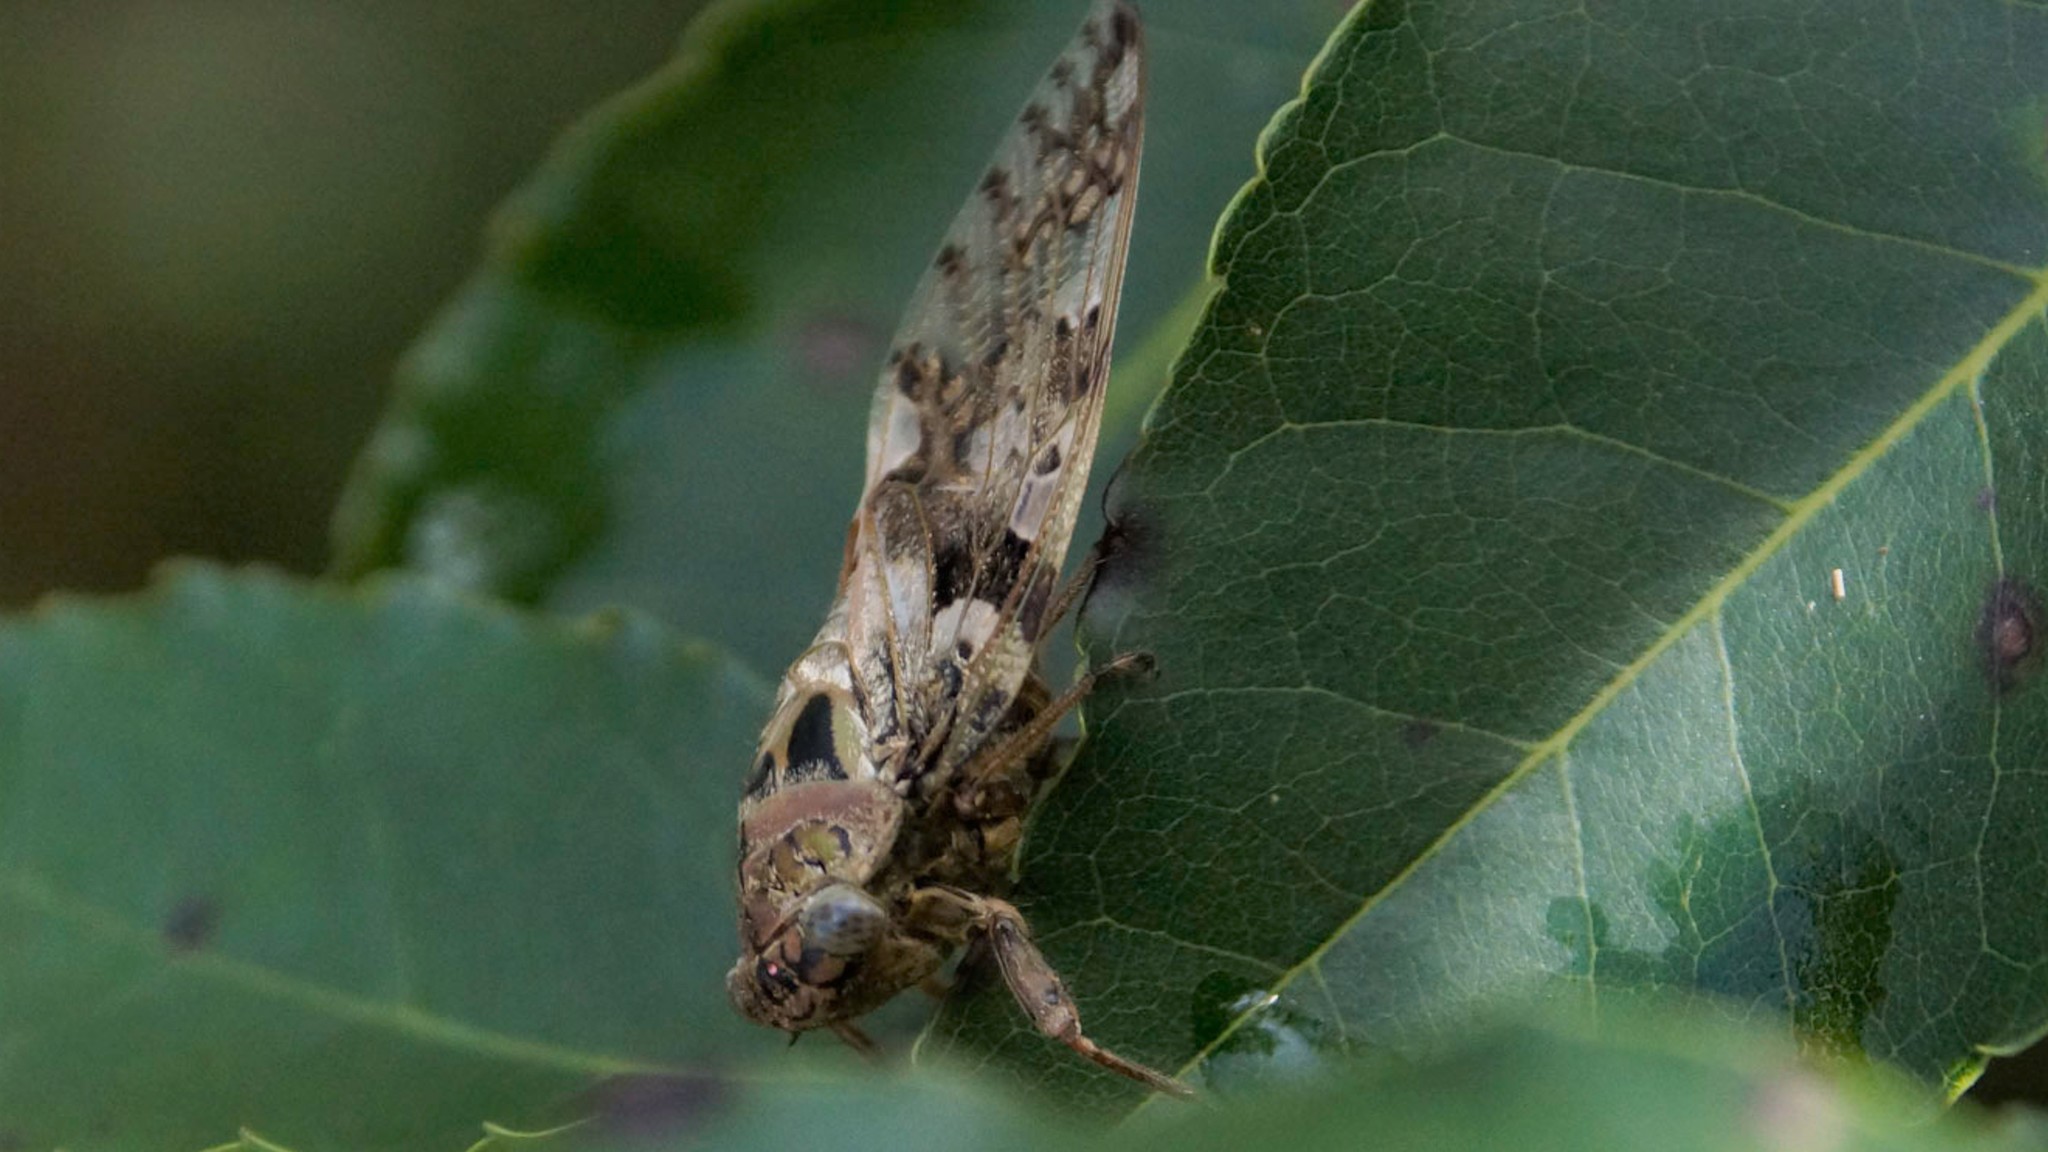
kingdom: Animalia
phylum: Arthropoda
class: Insecta
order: Hemiptera
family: Cicadidae
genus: Platypleura
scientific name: Platypleura takasagona
